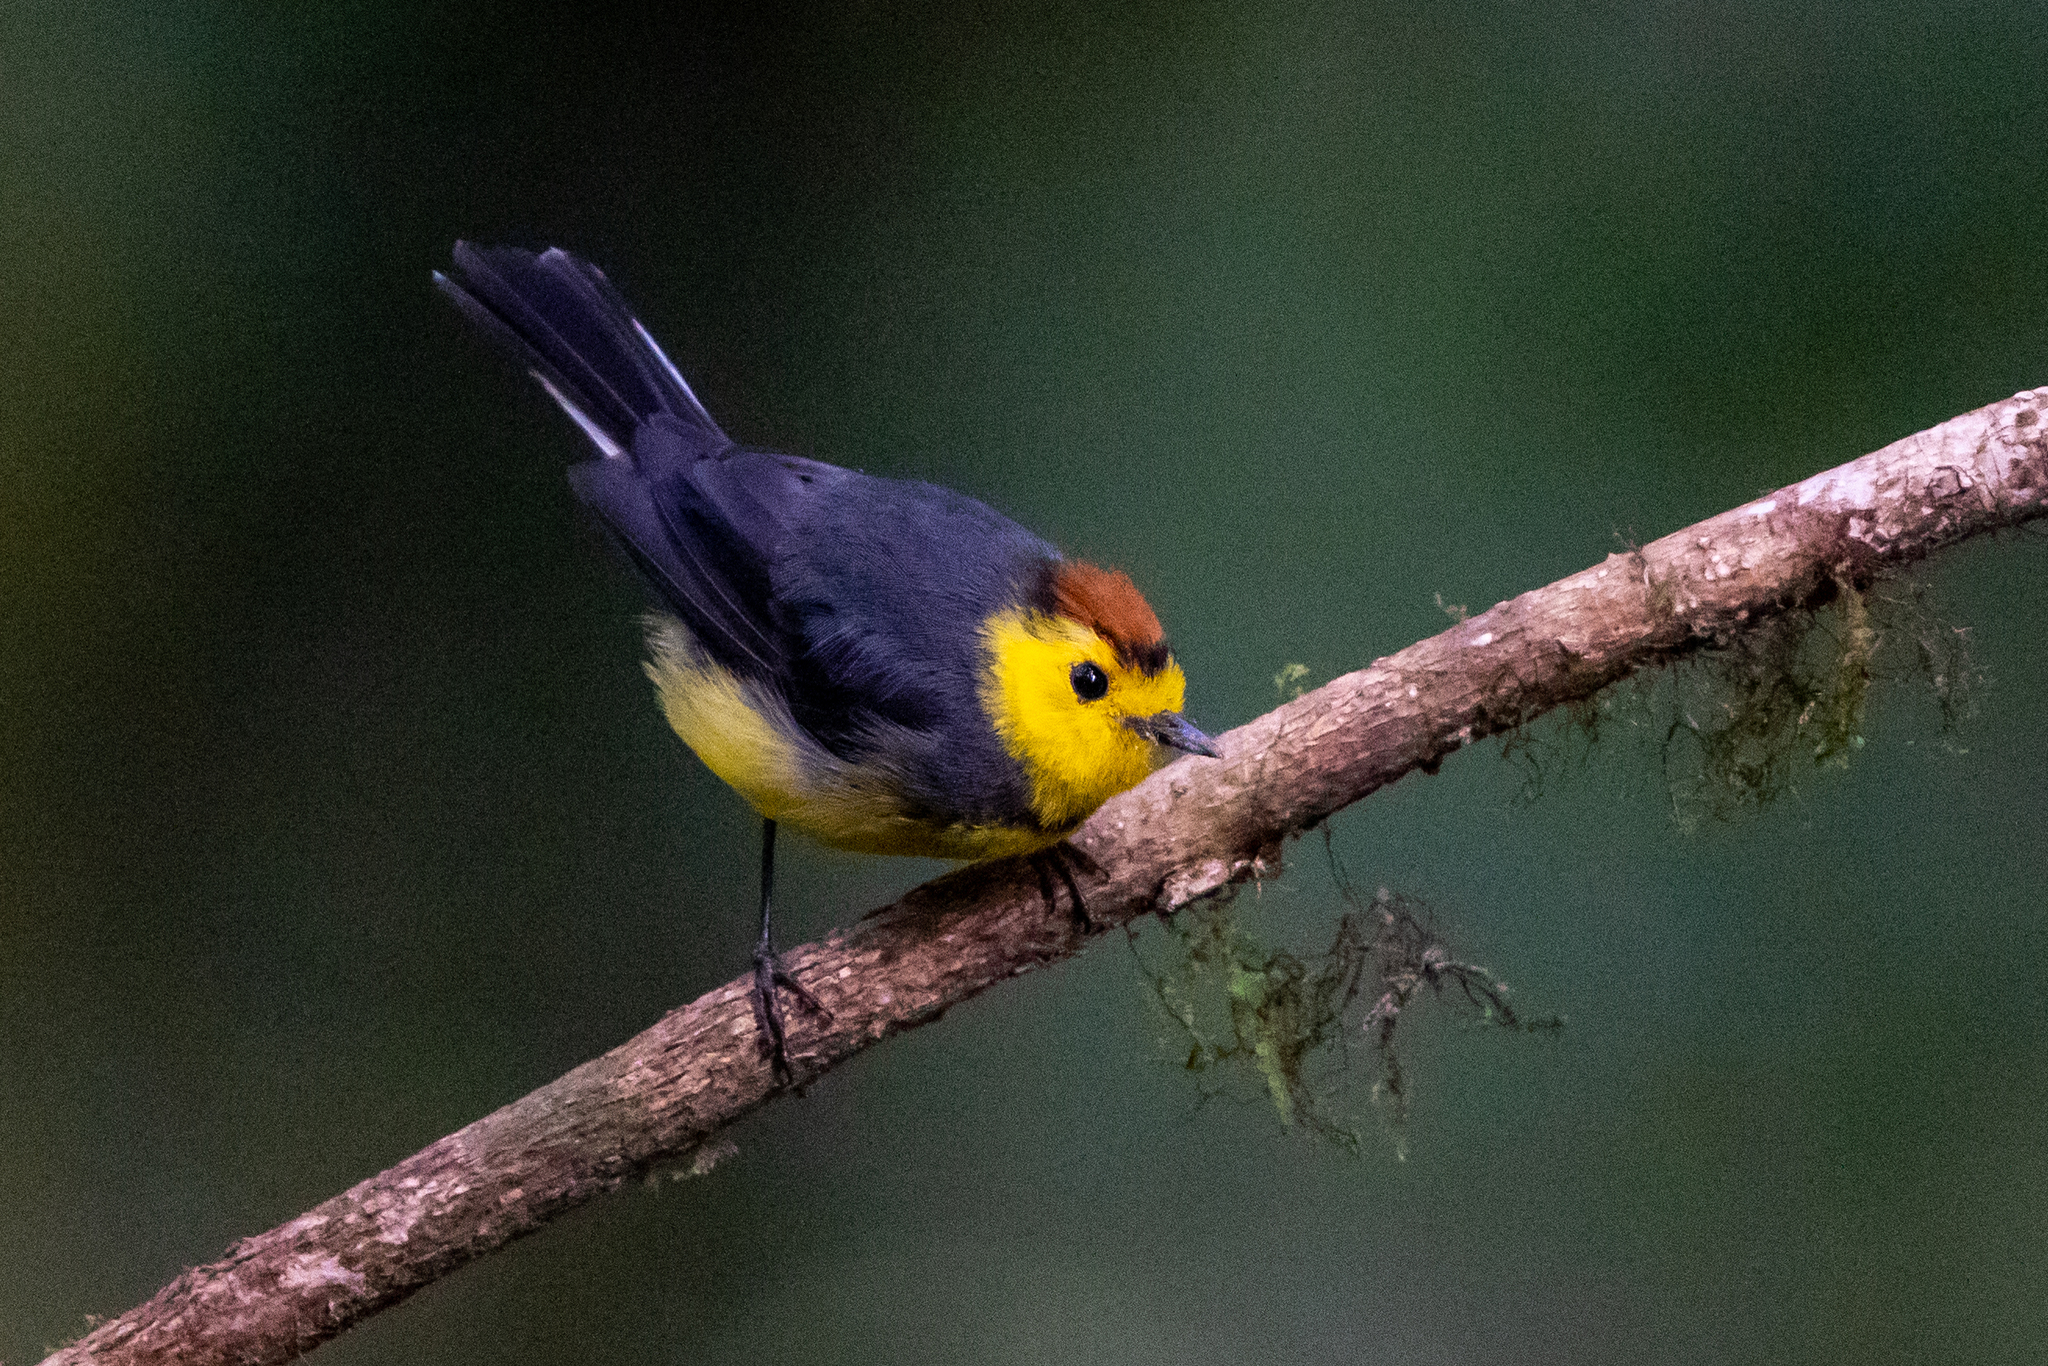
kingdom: Animalia
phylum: Chordata
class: Aves
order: Passeriformes
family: Parulidae
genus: Myioborus
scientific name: Myioborus torquatus
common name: Collared whitestart
